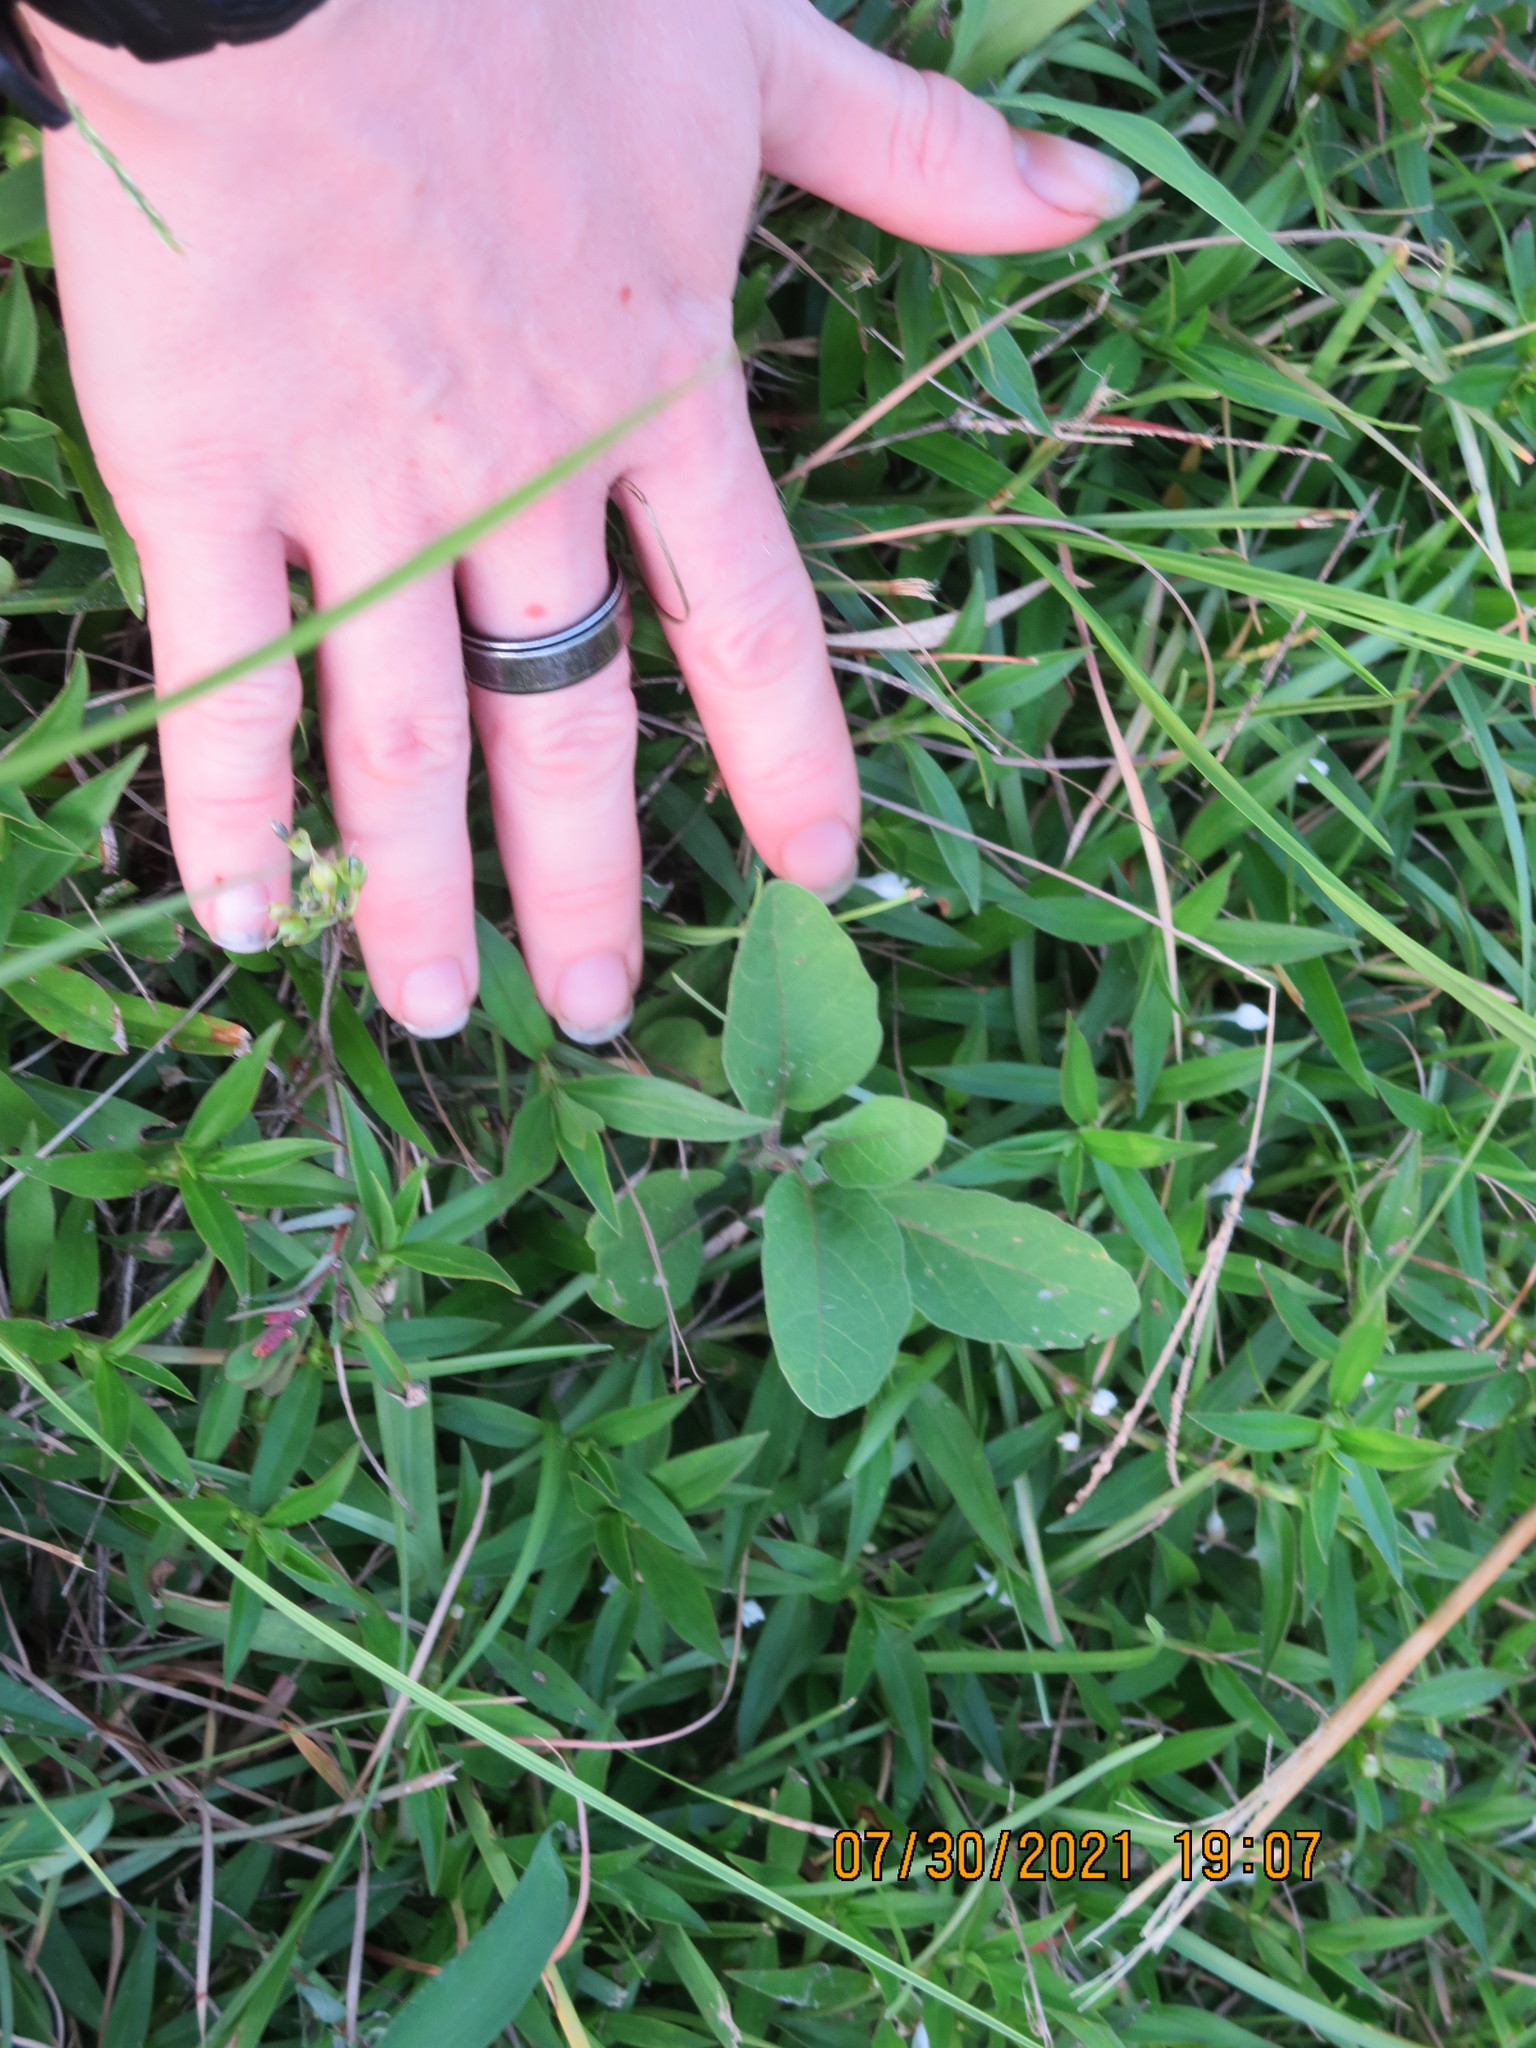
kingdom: Plantae
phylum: Tracheophyta
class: Magnoliopsida
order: Solanales
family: Solanaceae
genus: Physalis
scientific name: Physalis walteri
